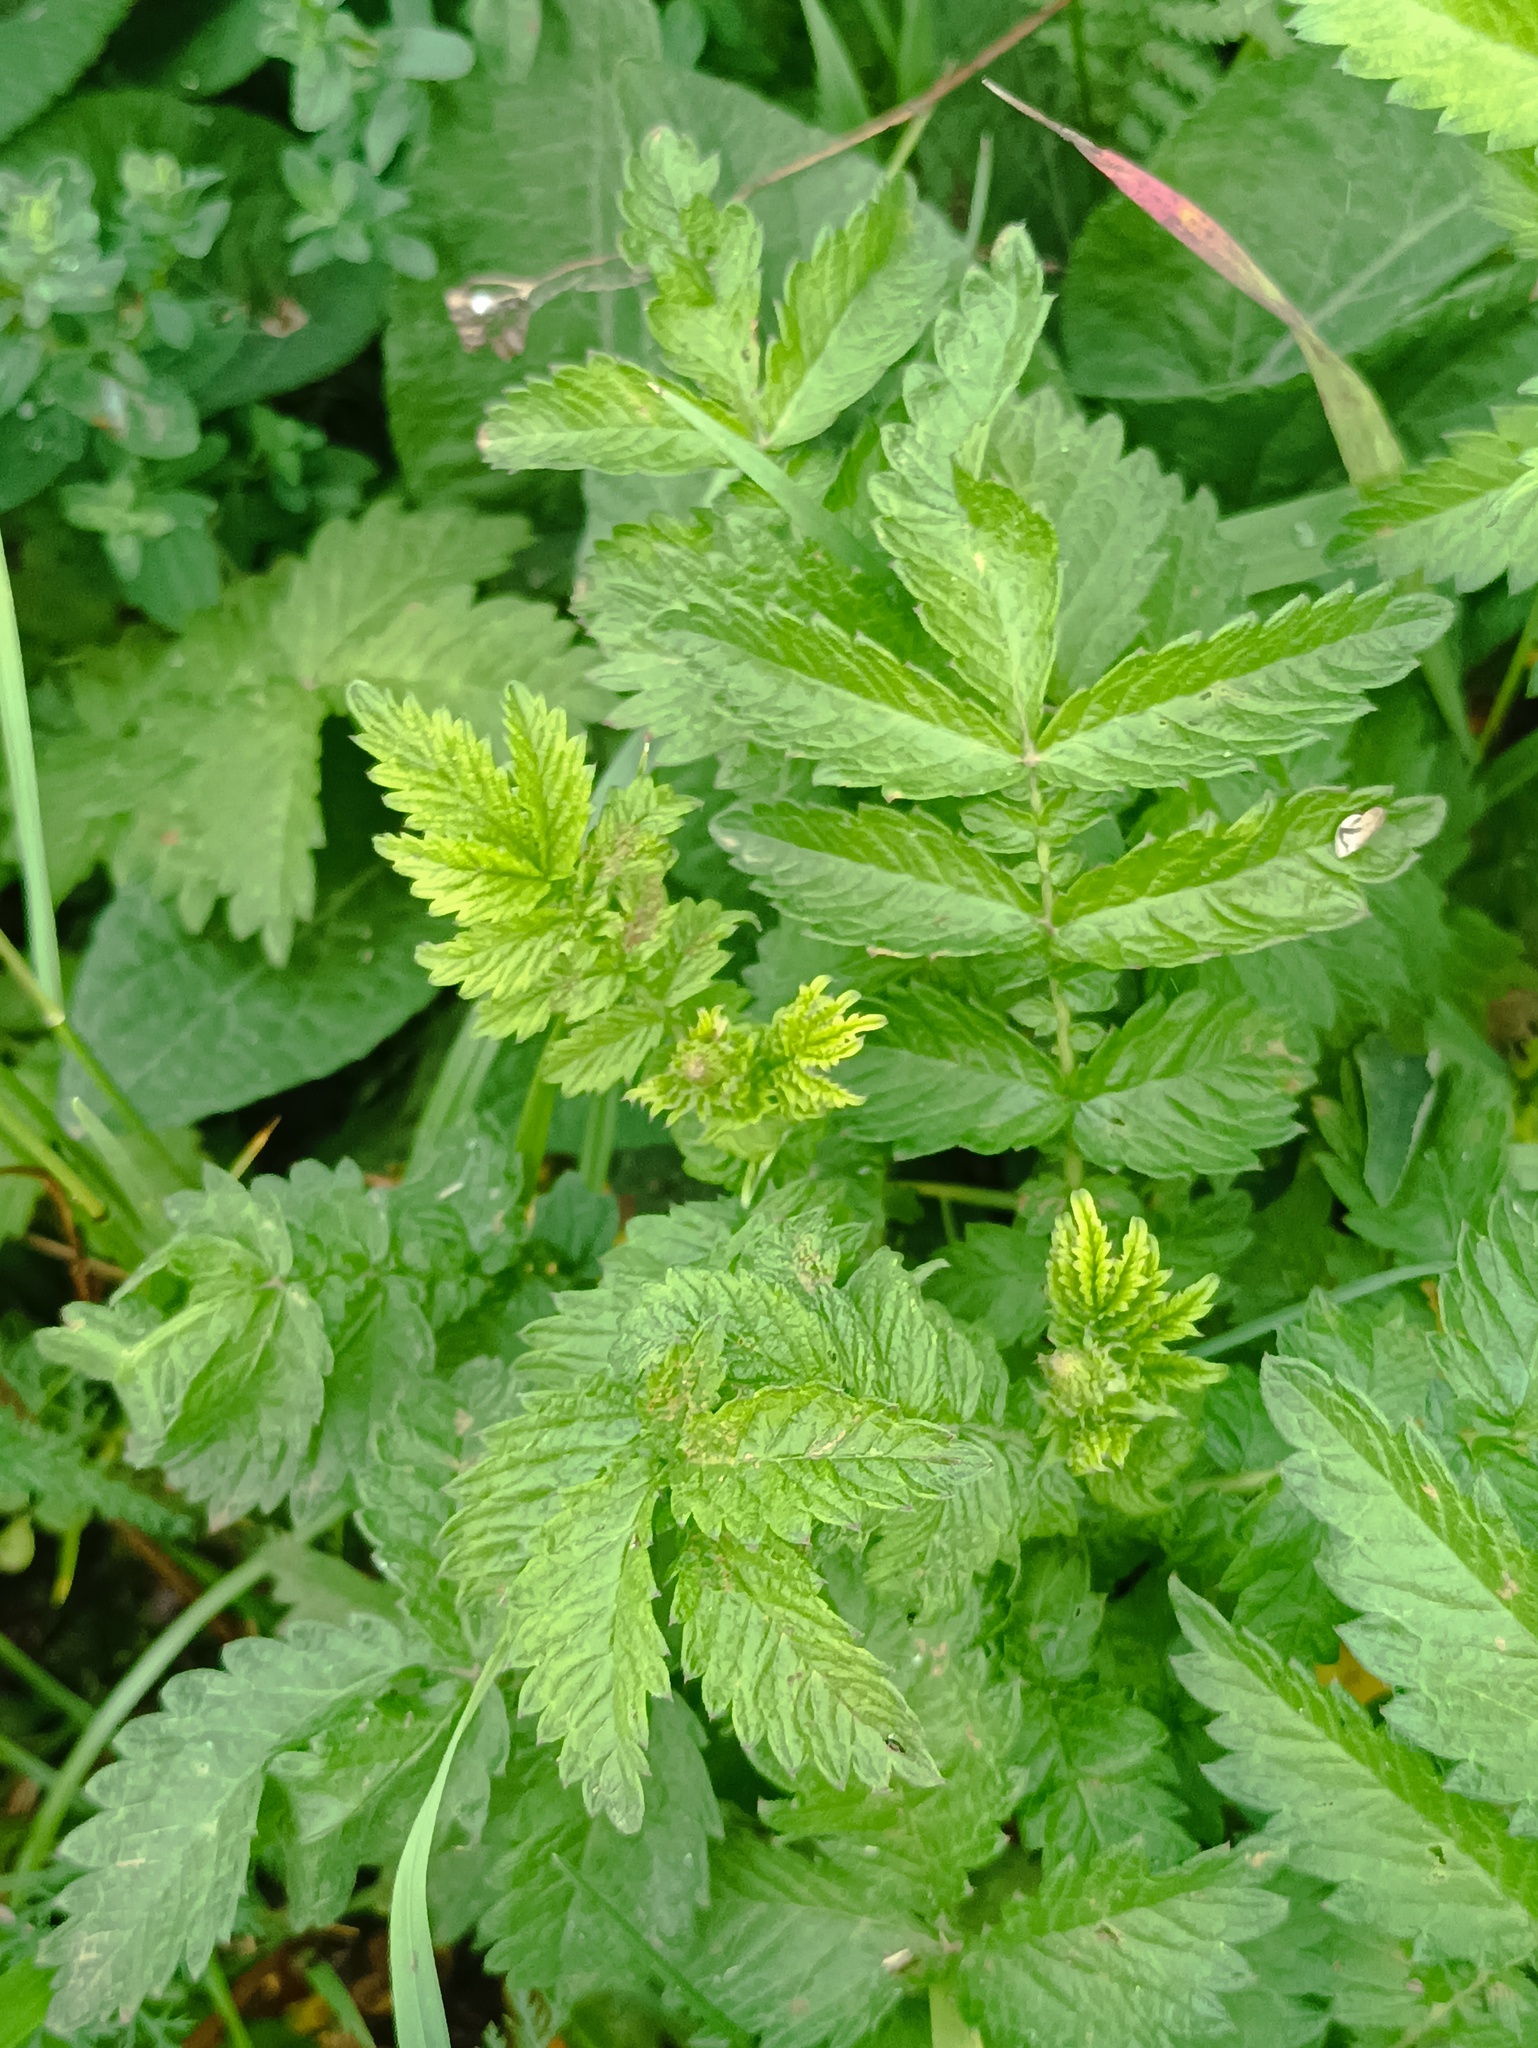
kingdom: Plantae
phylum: Tracheophyta
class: Magnoliopsida
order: Rosales
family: Rosaceae
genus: Agrimonia
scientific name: Agrimonia eupatoria
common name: Agrimony
